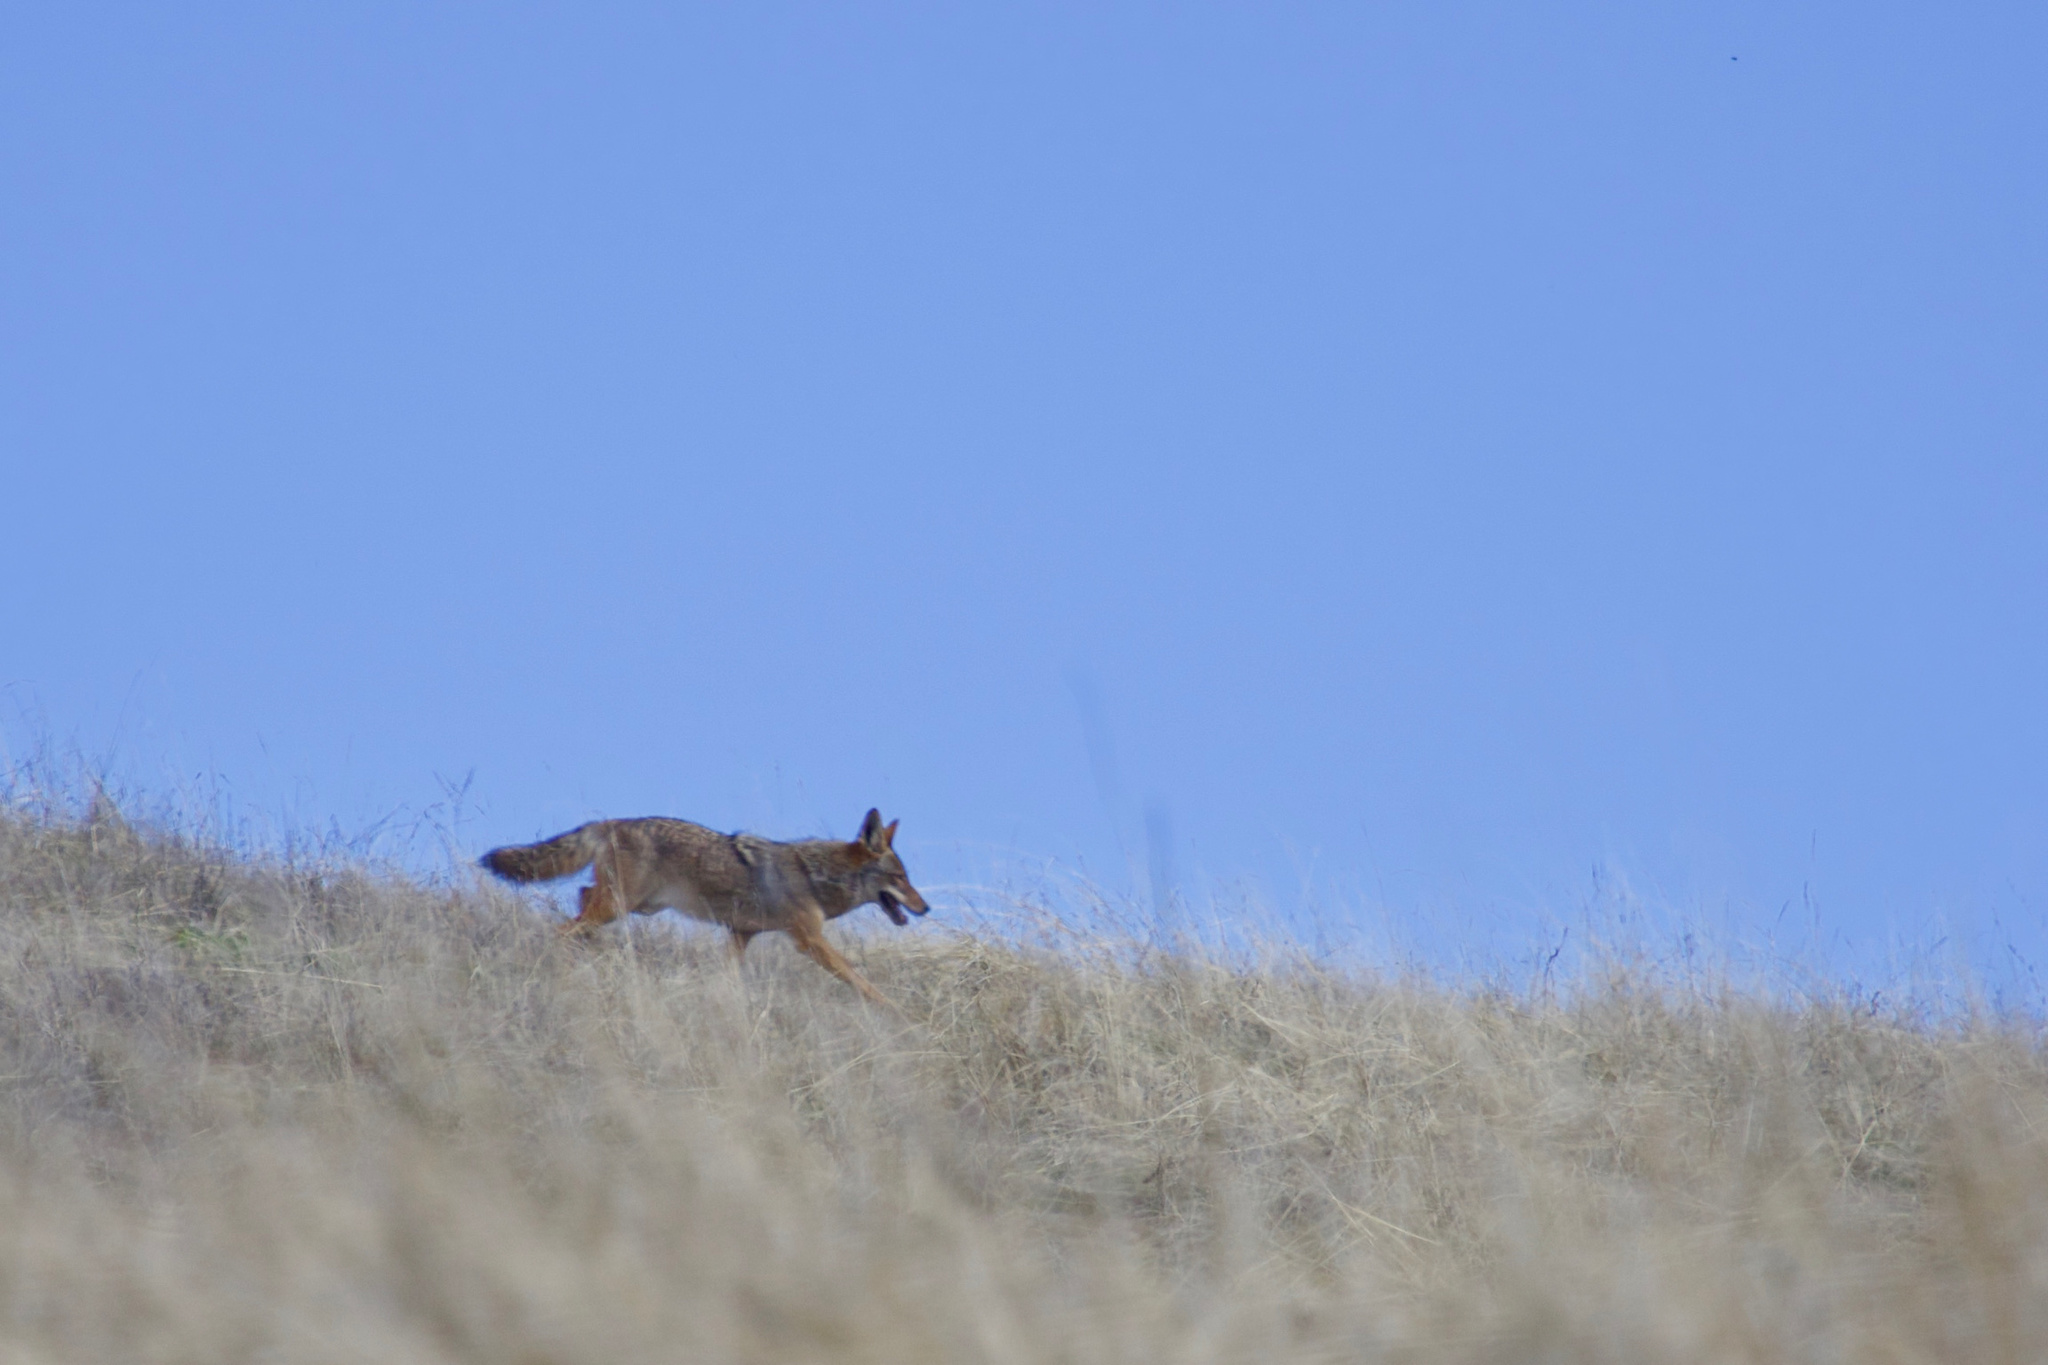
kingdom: Animalia
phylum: Chordata
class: Mammalia
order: Carnivora
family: Canidae
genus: Canis
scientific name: Canis latrans
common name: Coyote
